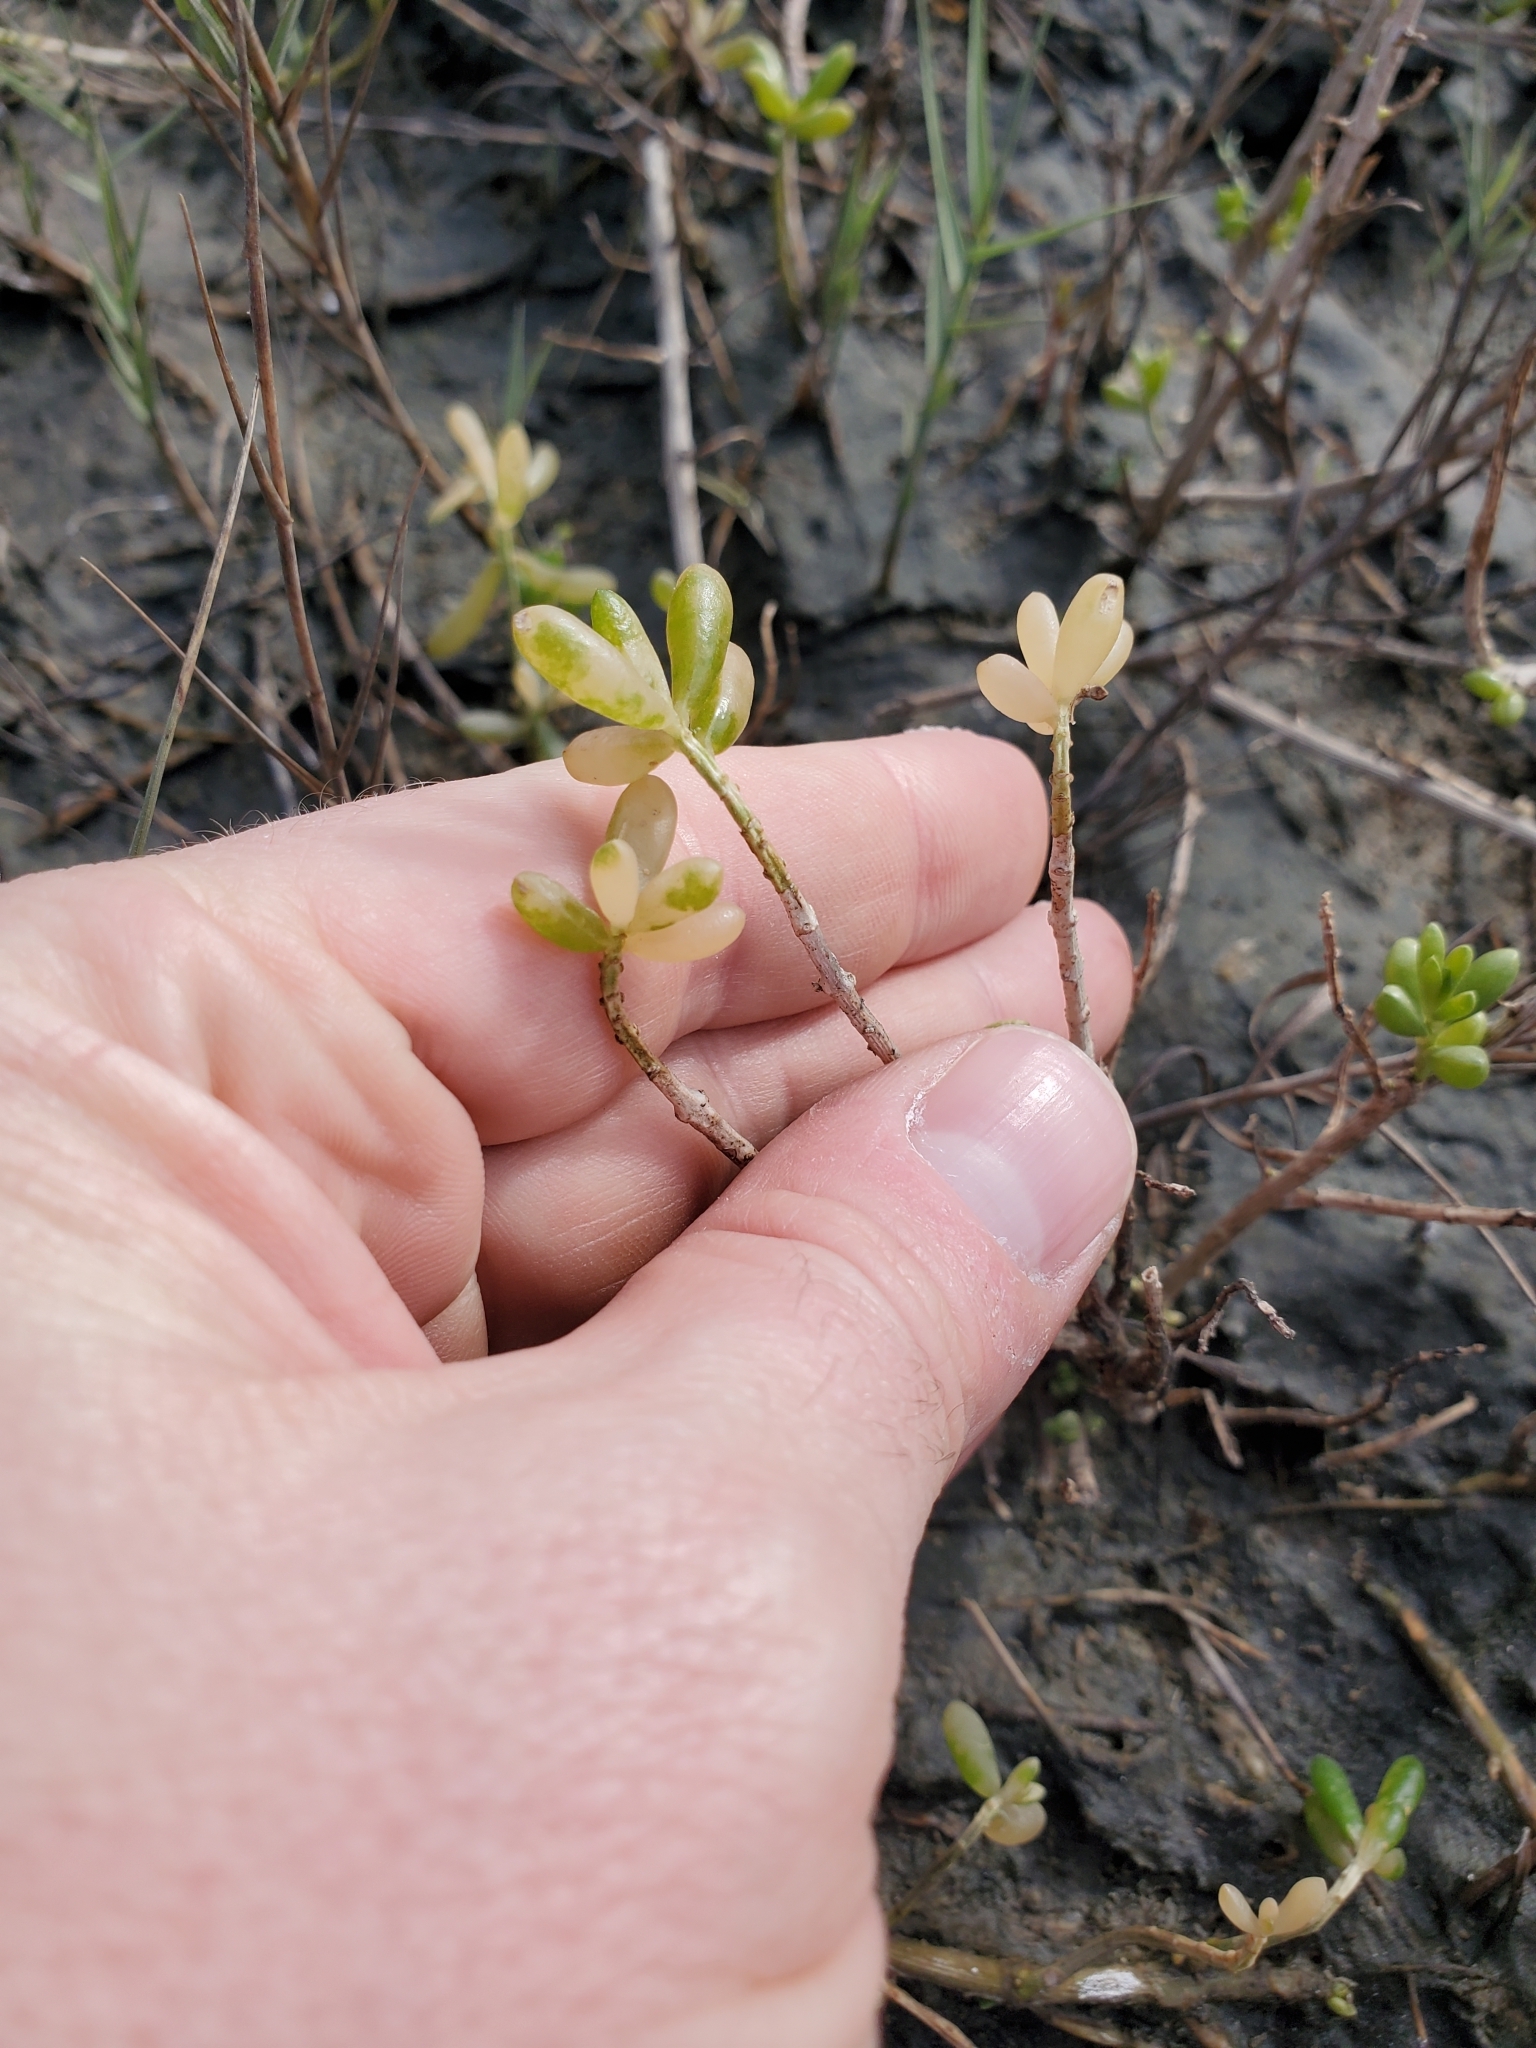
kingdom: Plantae
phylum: Tracheophyta
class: Magnoliopsida
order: Brassicales
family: Bataceae
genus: Batis
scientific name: Batis maritima
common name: Turtleweed
